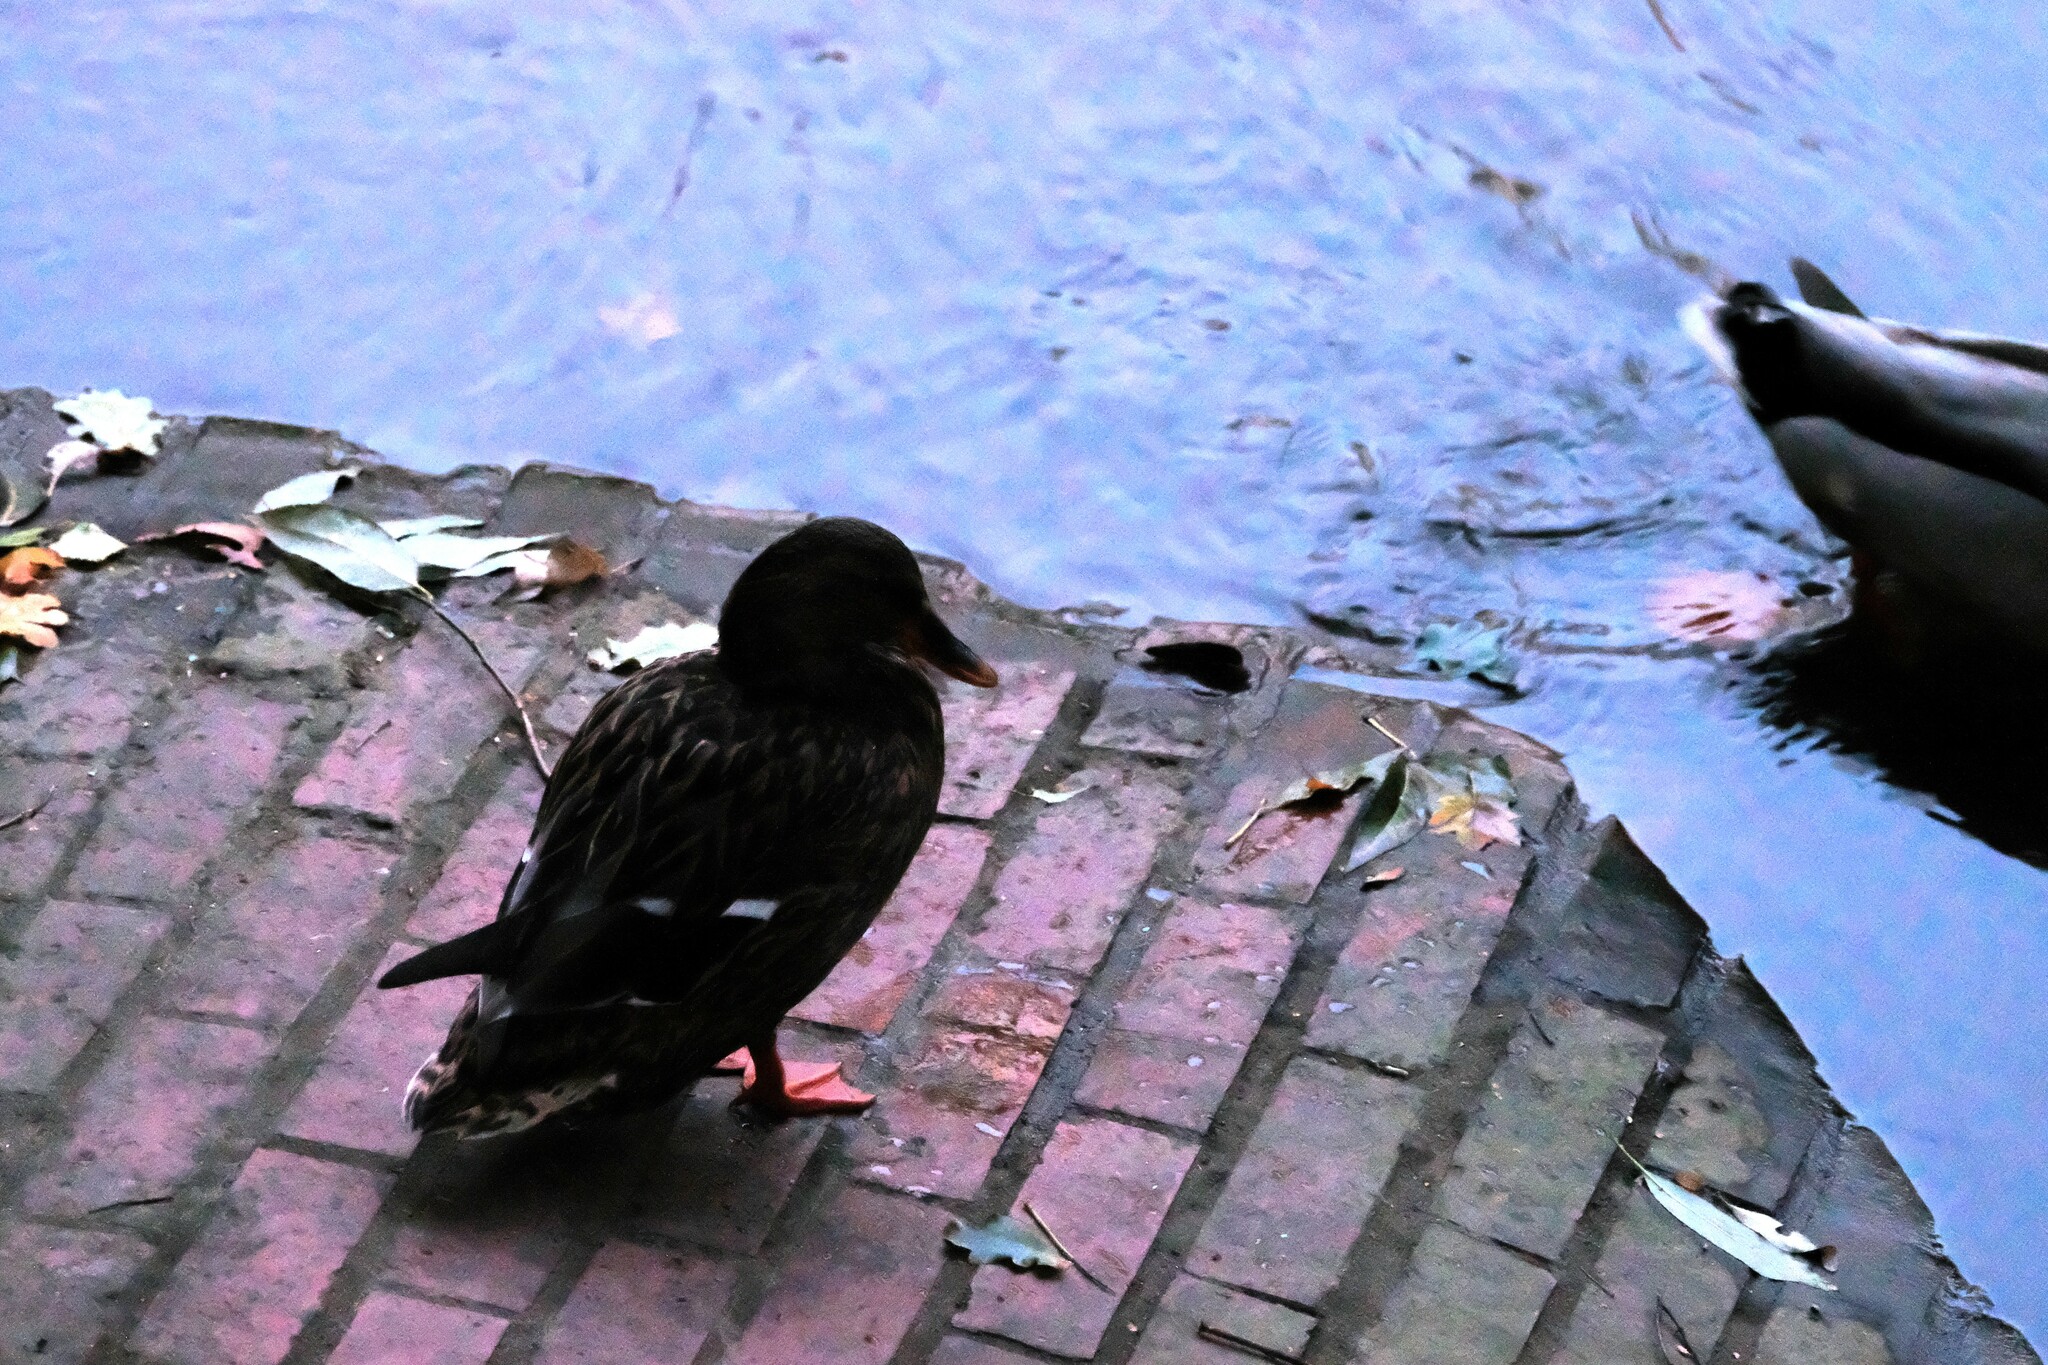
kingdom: Animalia
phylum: Chordata
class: Aves
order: Anseriformes
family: Anatidae
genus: Anas
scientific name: Anas platyrhynchos
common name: Mallard
